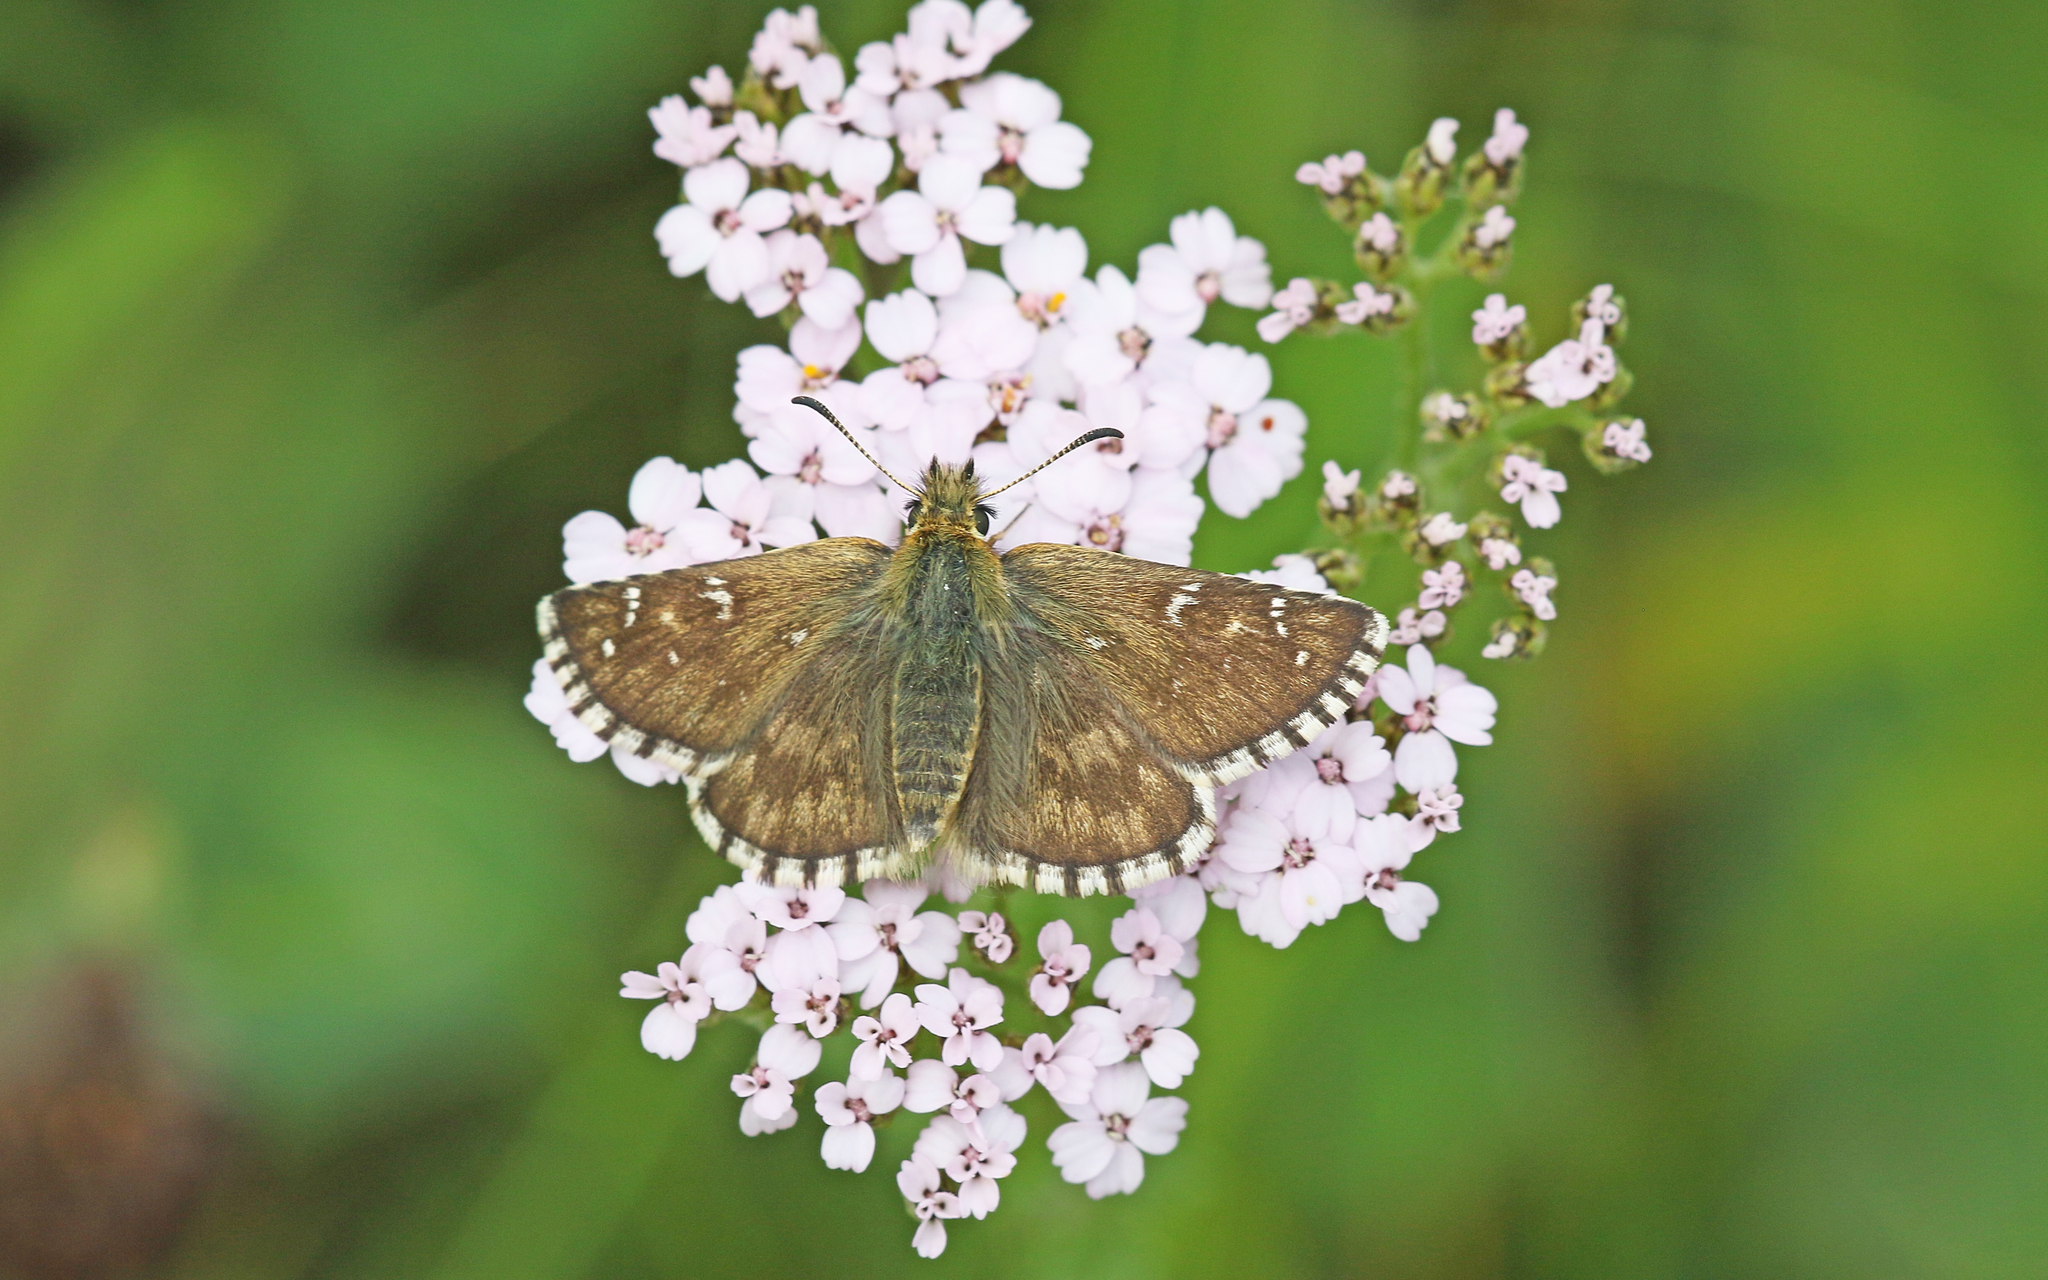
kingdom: Animalia
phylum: Arthropoda
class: Insecta
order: Lepidoptera
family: Hesperiidae
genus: Pyrgus
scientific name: Pyrgus carlinae
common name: Carline skipper
